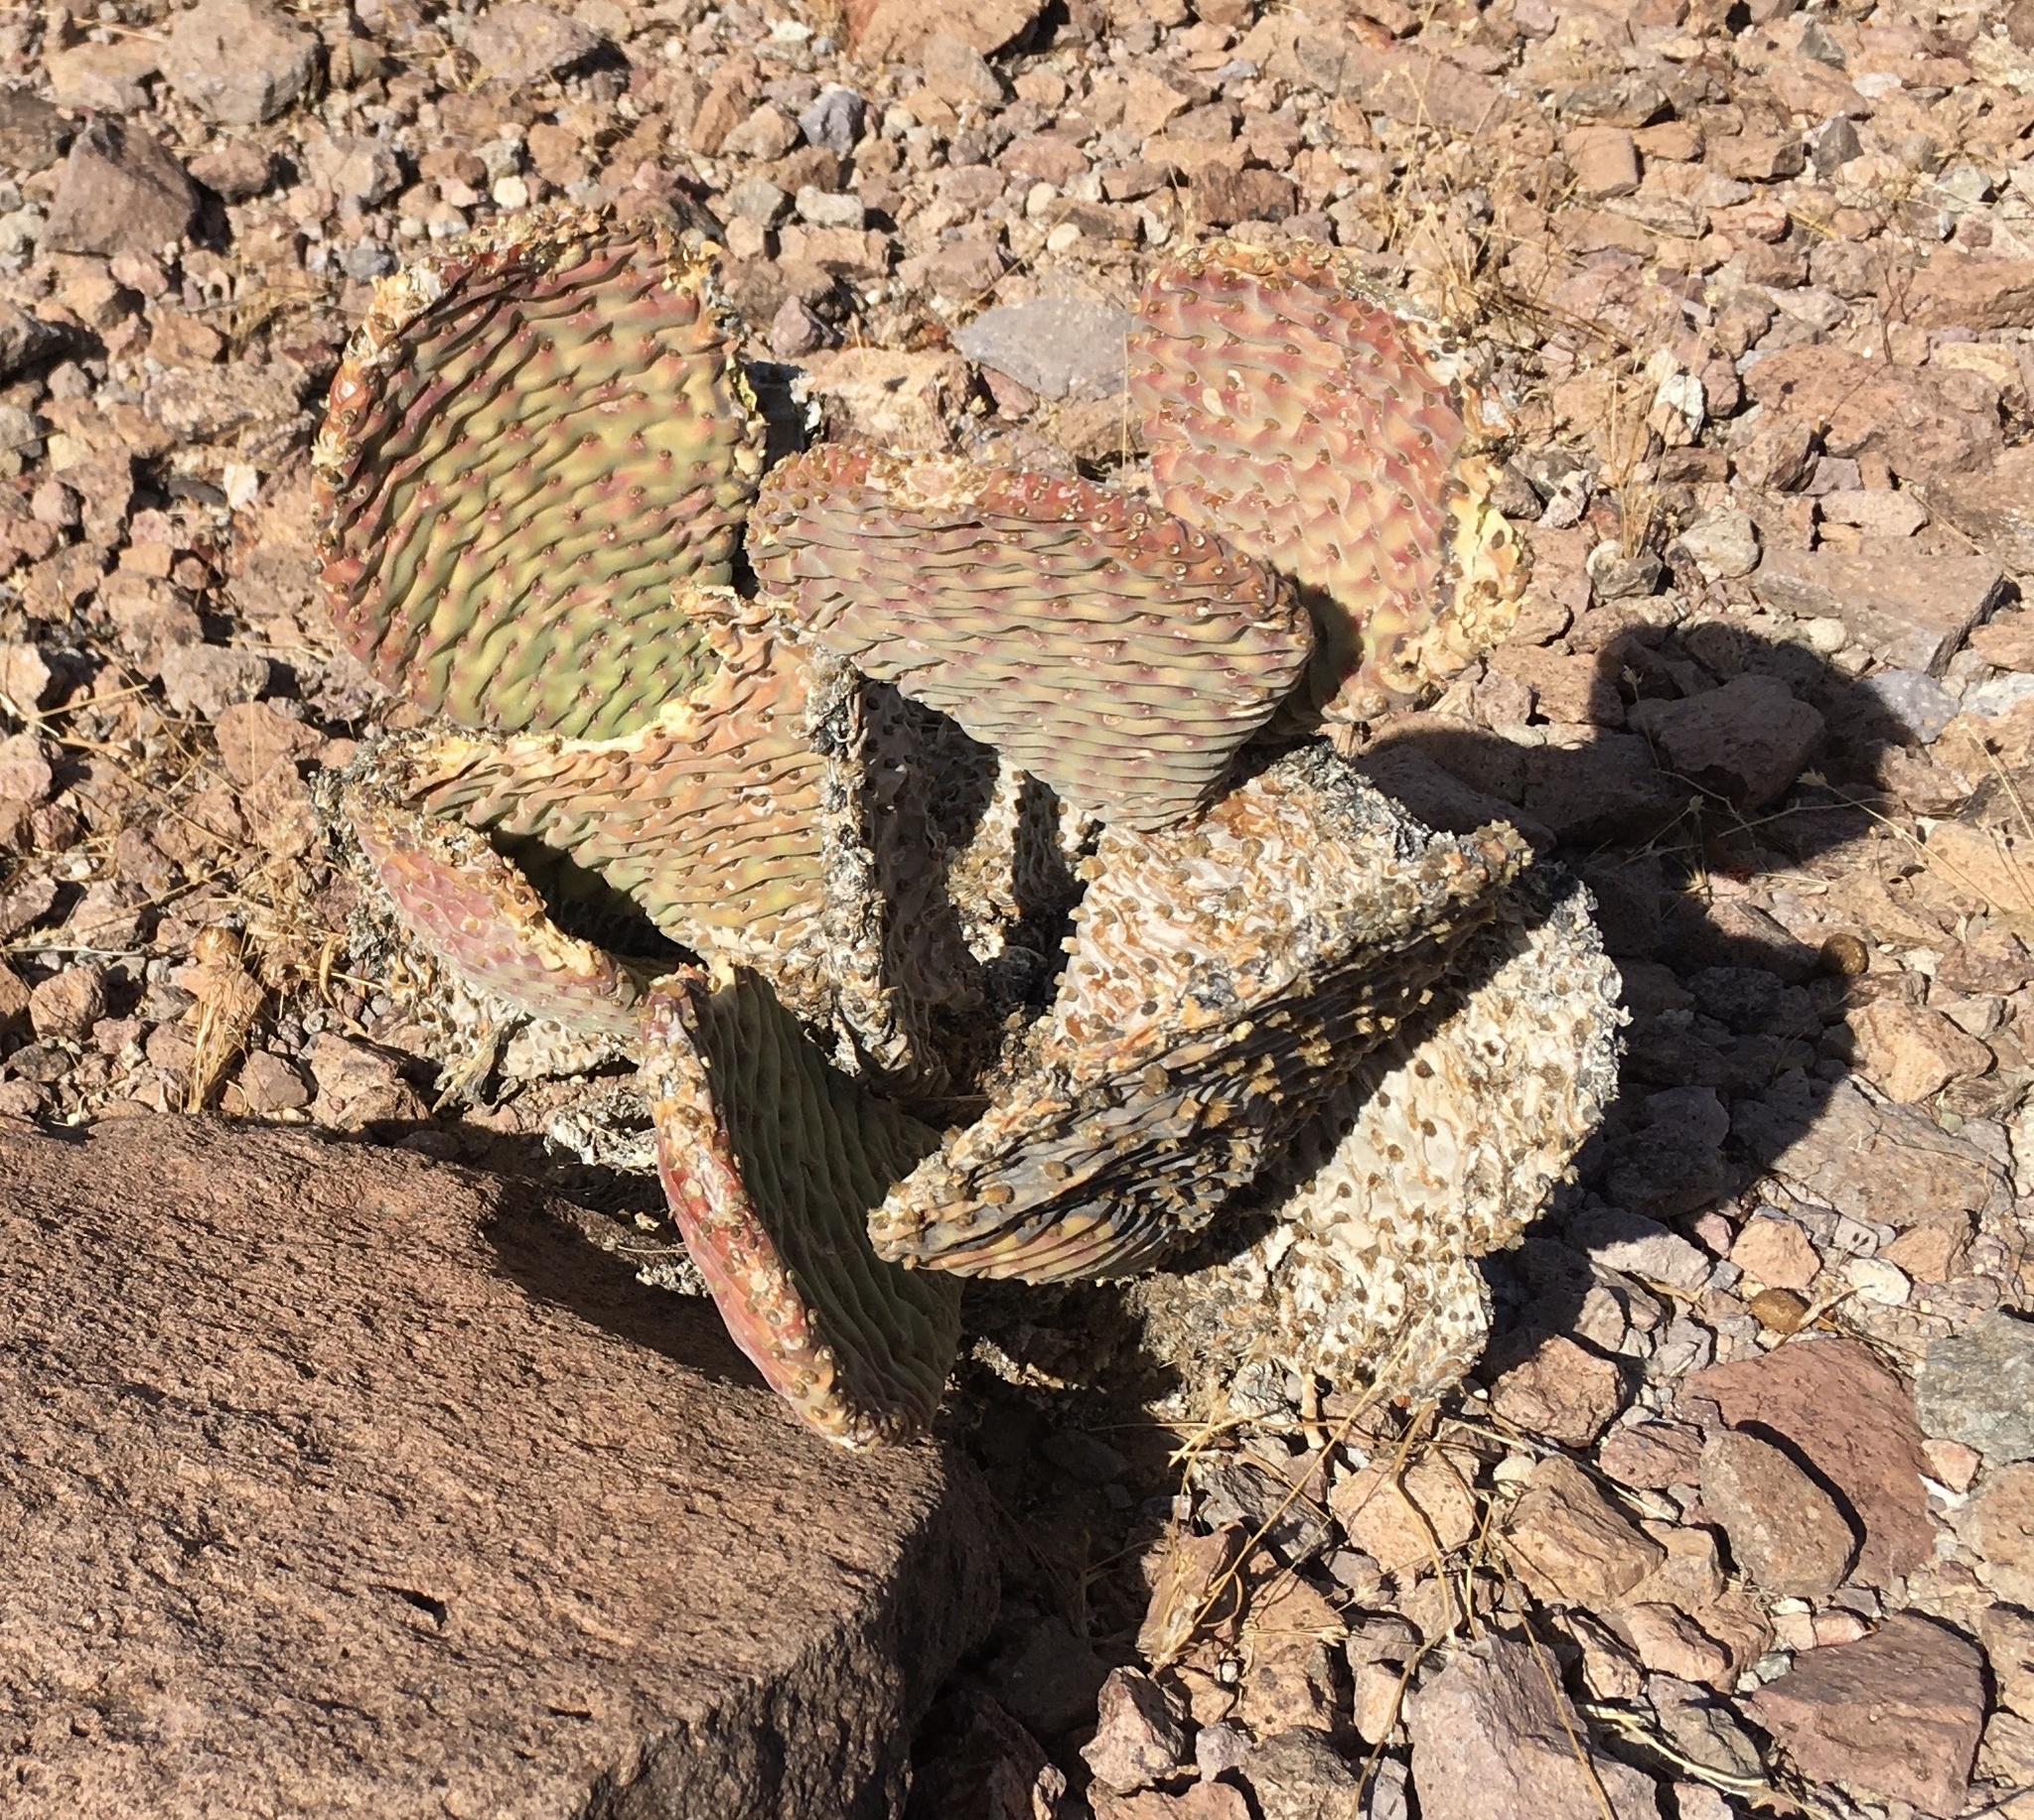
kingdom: Plantae
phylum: Tracheophyta
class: Magnoliopsida
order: Caryophyllales
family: Cactaceae
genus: Opuntia
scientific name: Opuntia basilaris
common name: Beavertail prickly-pear
